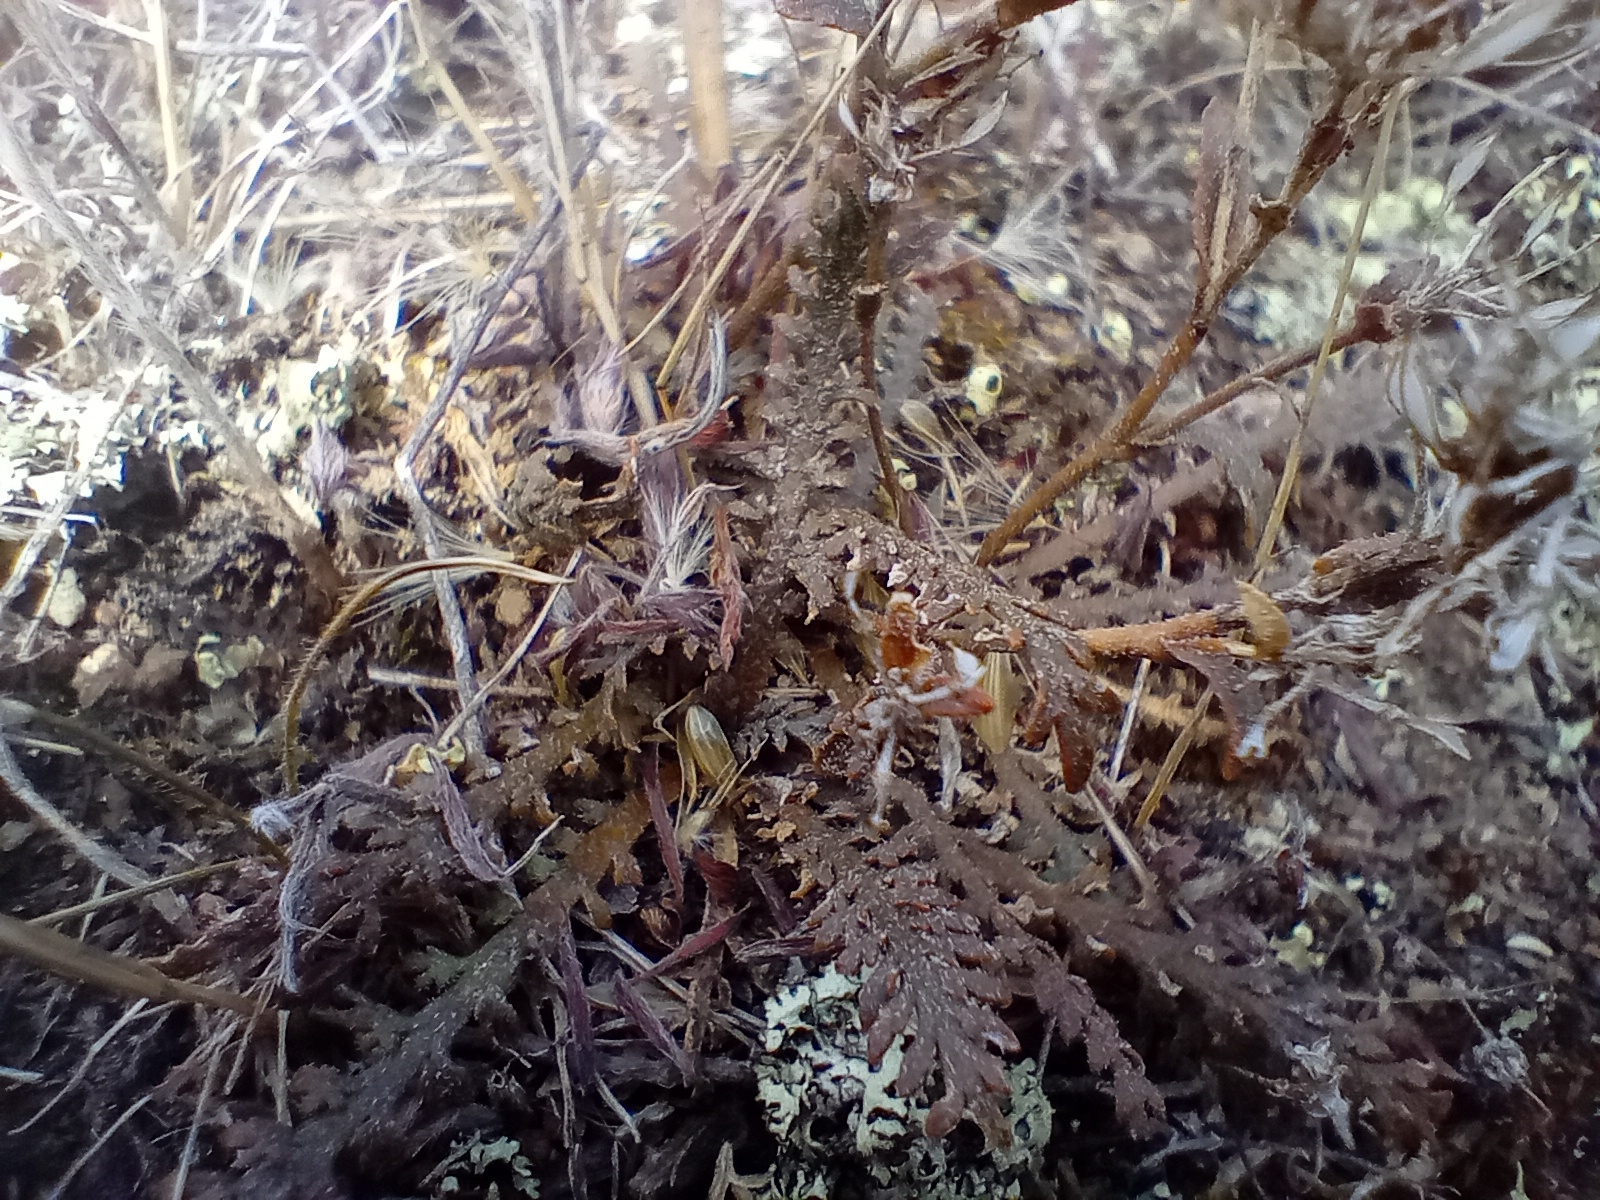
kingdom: Plantae
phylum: Tracheophyta
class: Magnoliopsida
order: Brassicales
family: Brassicaceae
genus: Lepidium
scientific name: Lepidium sisymbrioides
